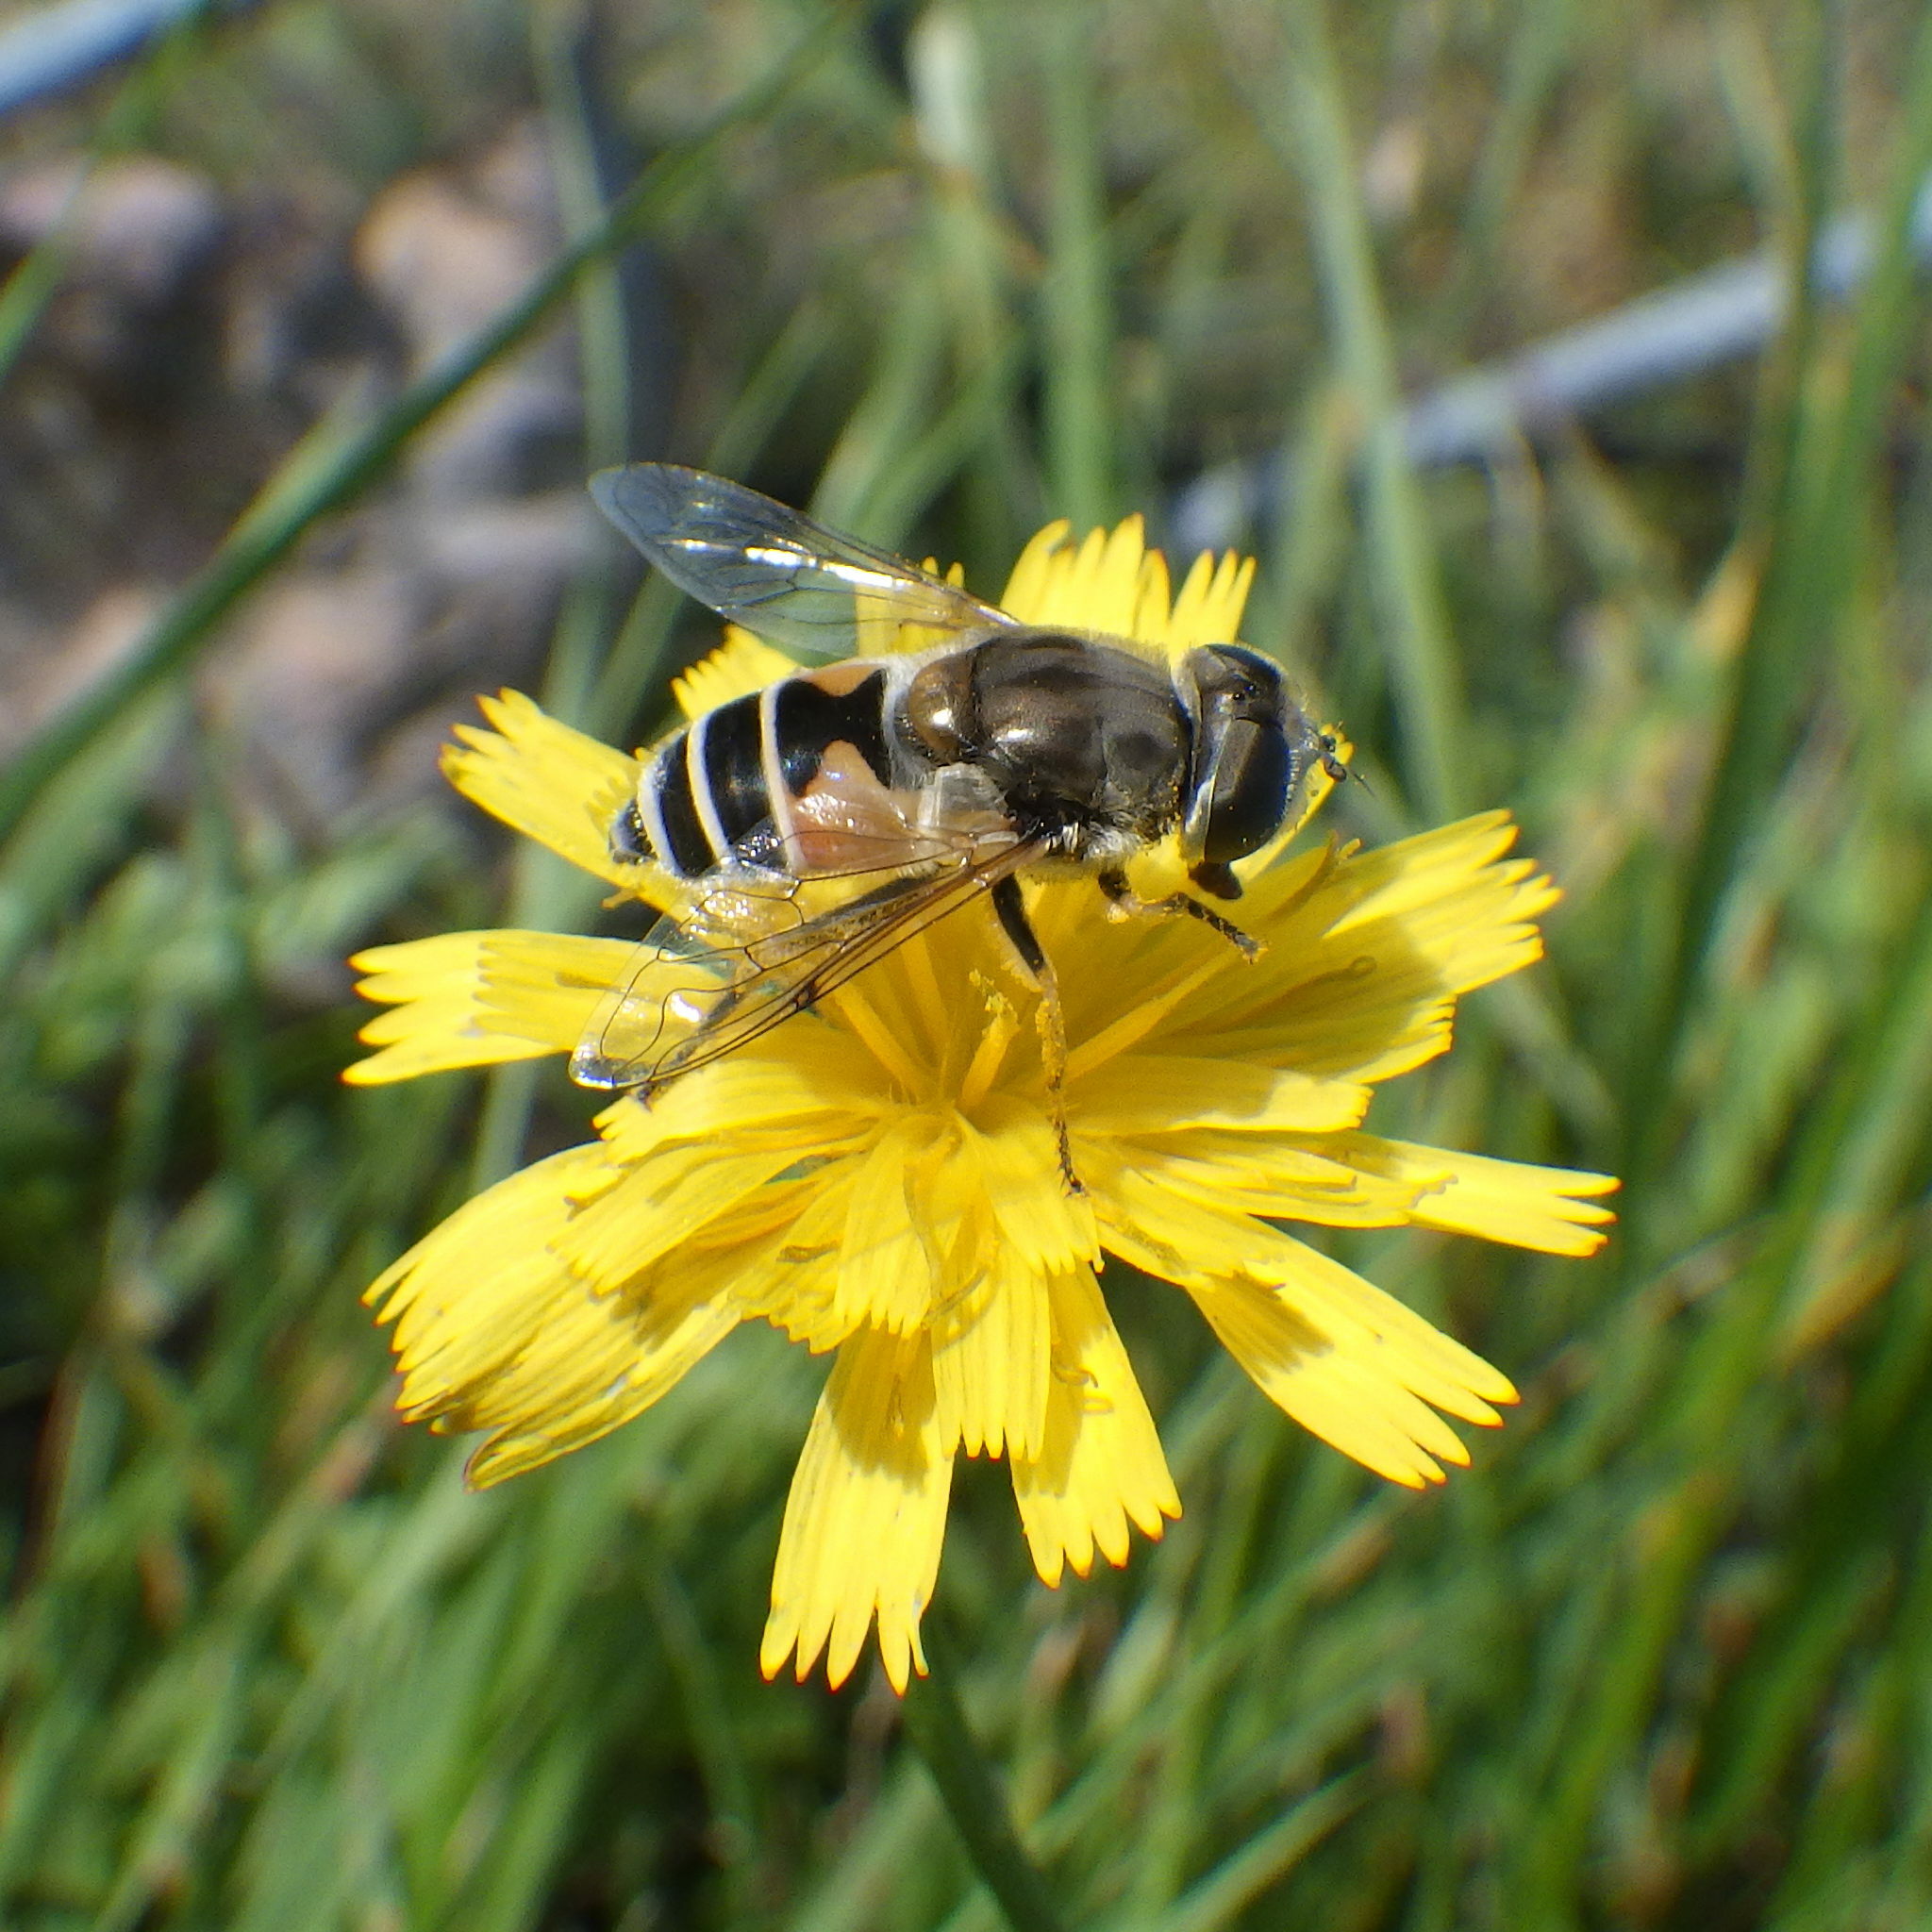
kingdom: Animalia
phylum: Arthropoda
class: Insecta
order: Diptera
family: Syrphidae
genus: Eristalis
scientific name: Eristalis arbustorum
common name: Hover fly
